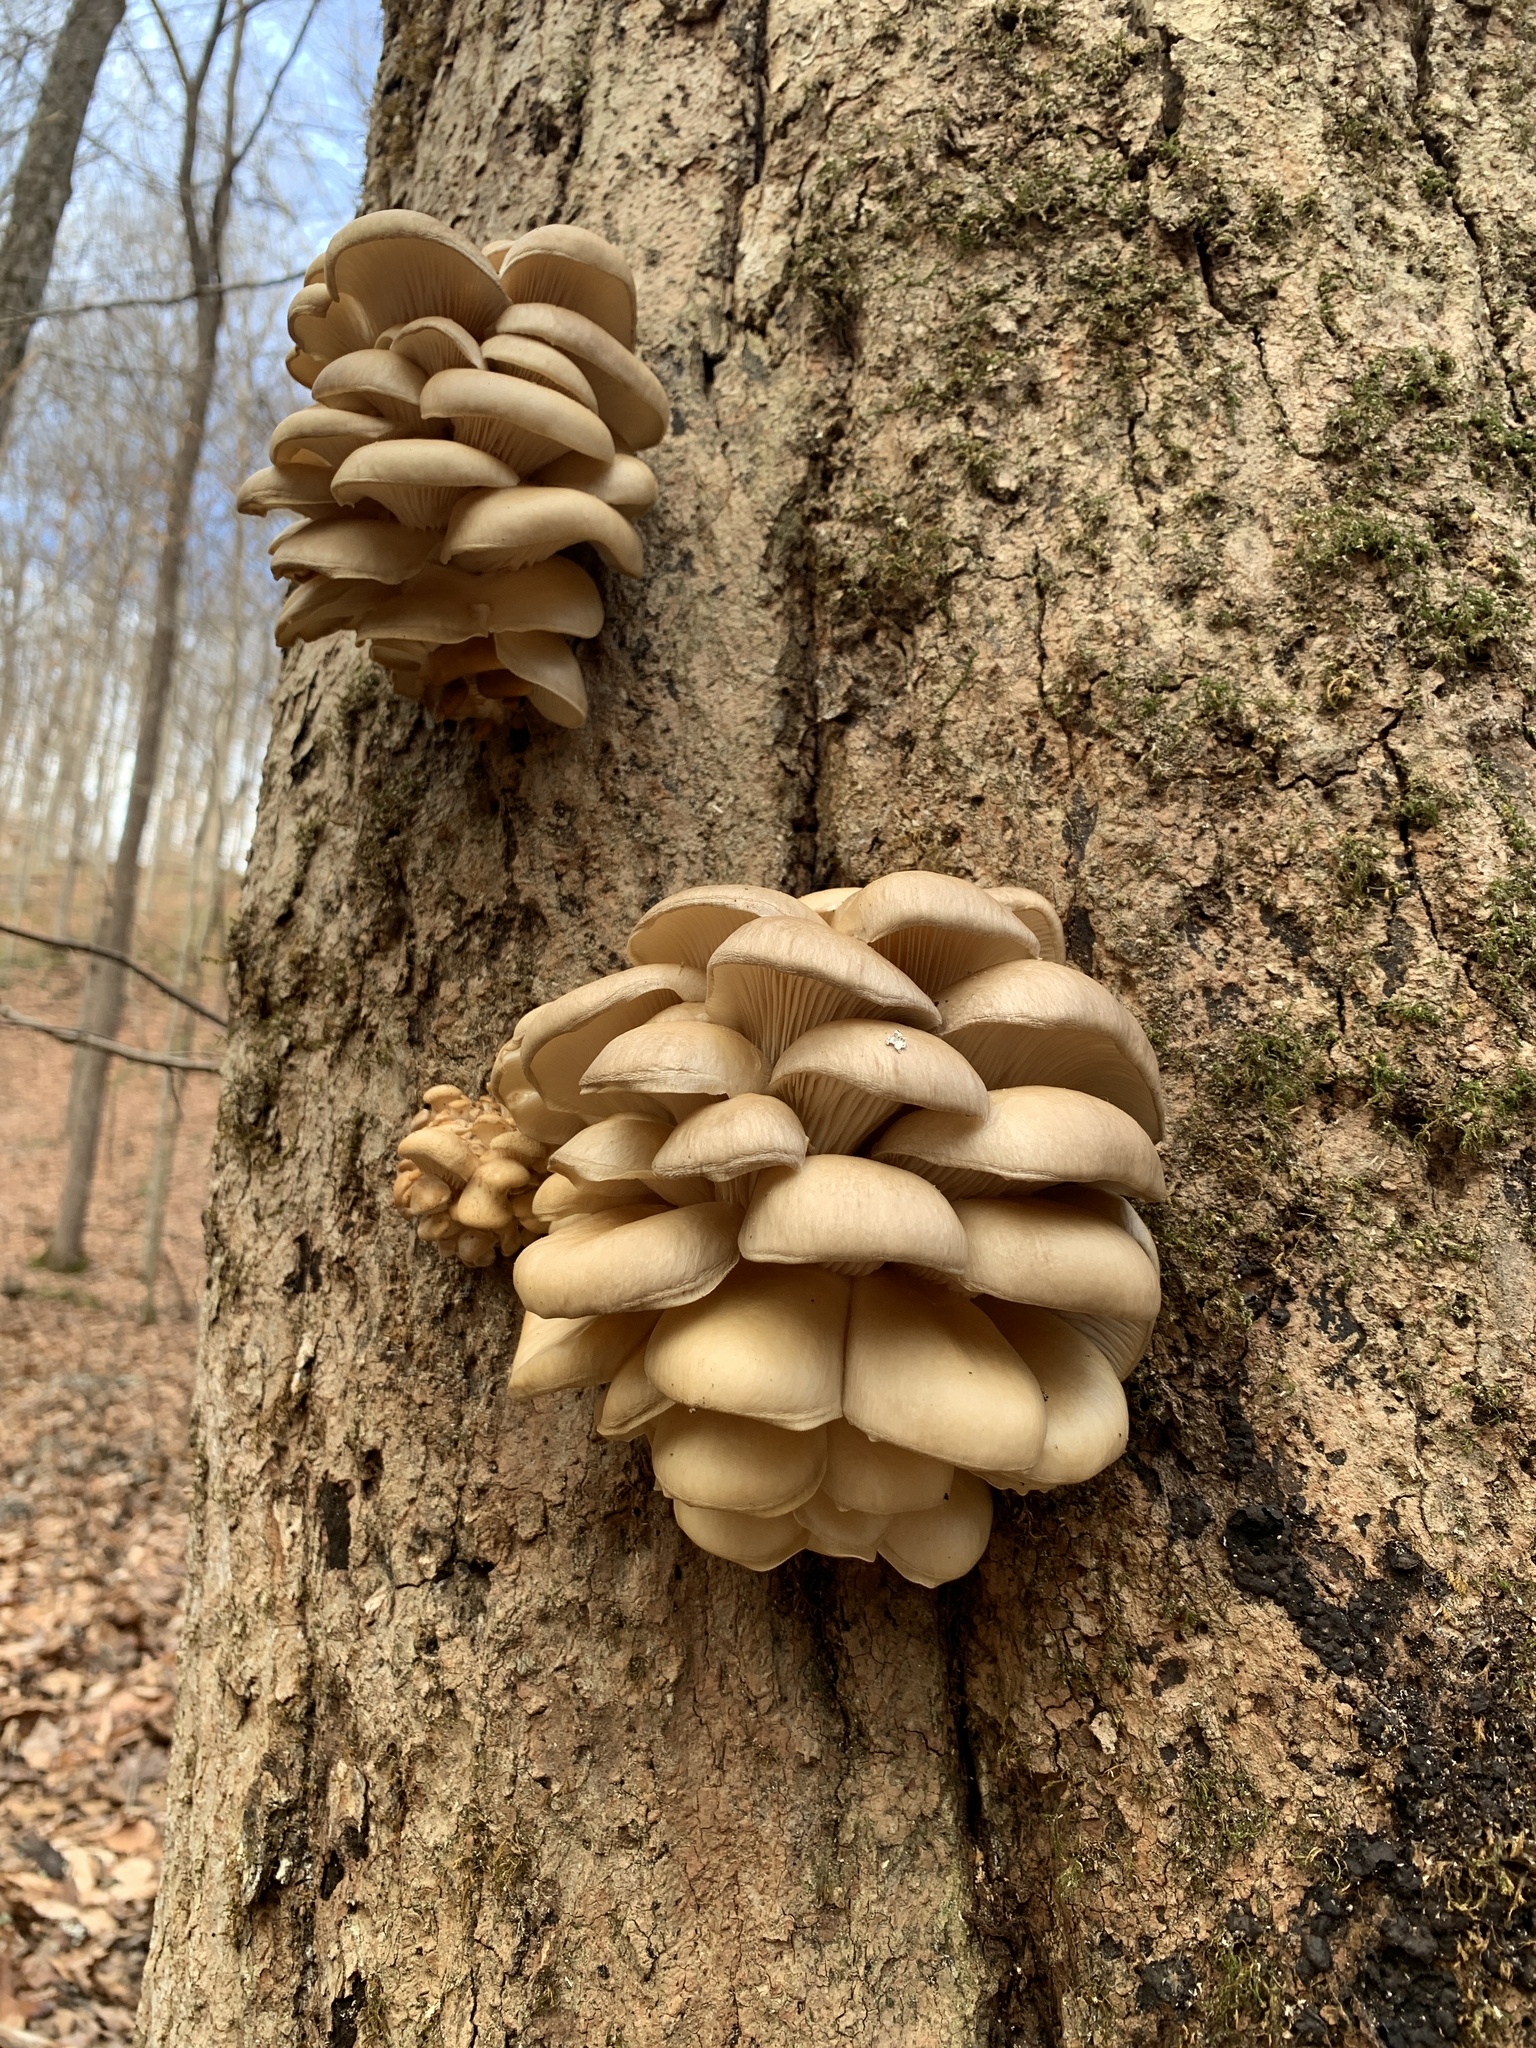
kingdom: Fungi
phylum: Basidiomycota
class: Agaricomycetes
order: Agaricales
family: Pleurotaceae
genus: Pleurotus
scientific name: Pleurotus ostreatus
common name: Oyster mushroom
